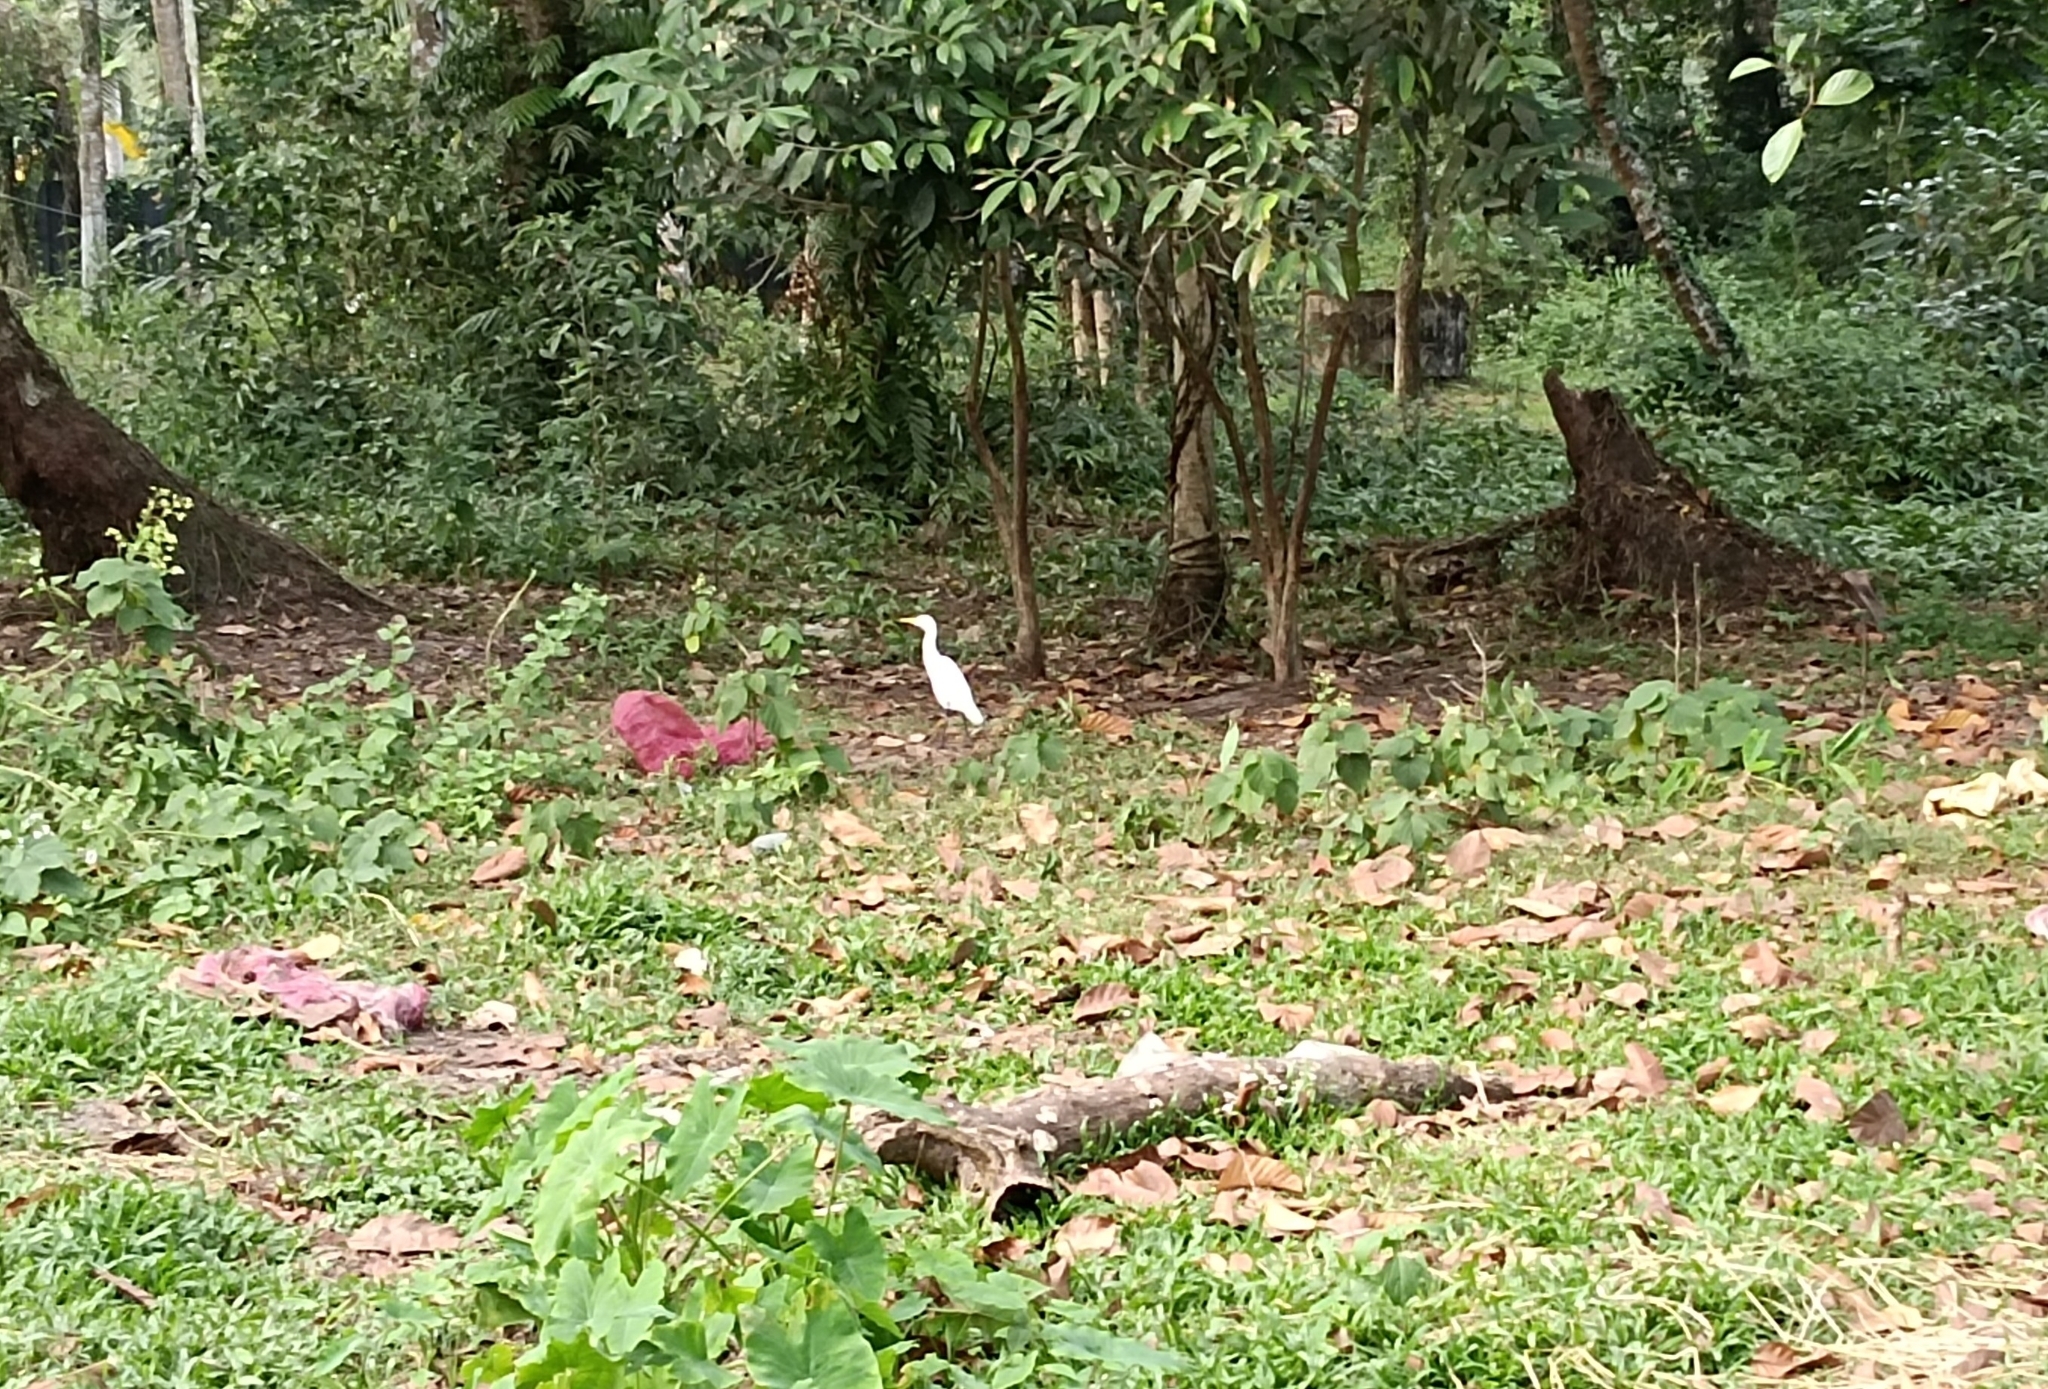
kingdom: Animalia
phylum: Chordata
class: Aves
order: Pelecaniformes
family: Ardeidae
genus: Bubulcus
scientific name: Bubulcus coromandus
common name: Eastern cattle egret
